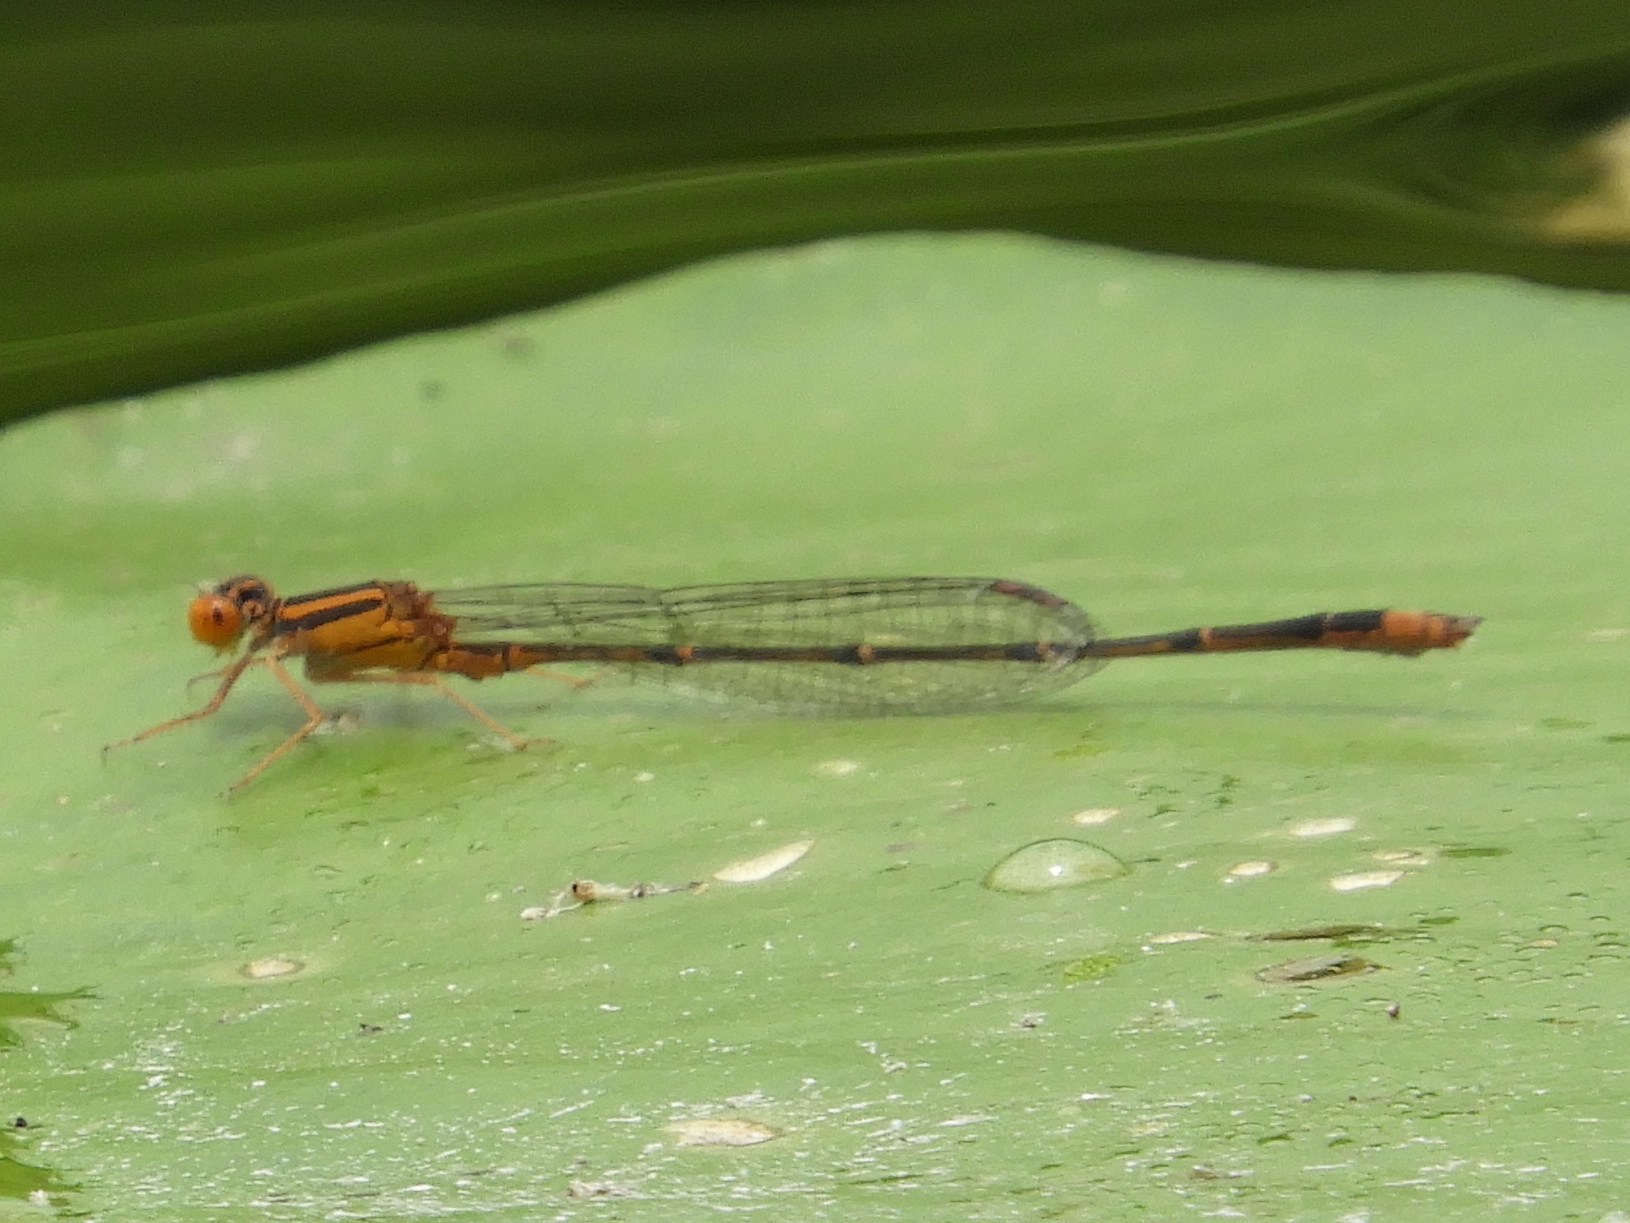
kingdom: Animalia
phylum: Arthropoda
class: Insecta
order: Odonata
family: Coenagrionidae
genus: Enallagma
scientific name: Enallagma signatum
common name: Orange bluet
